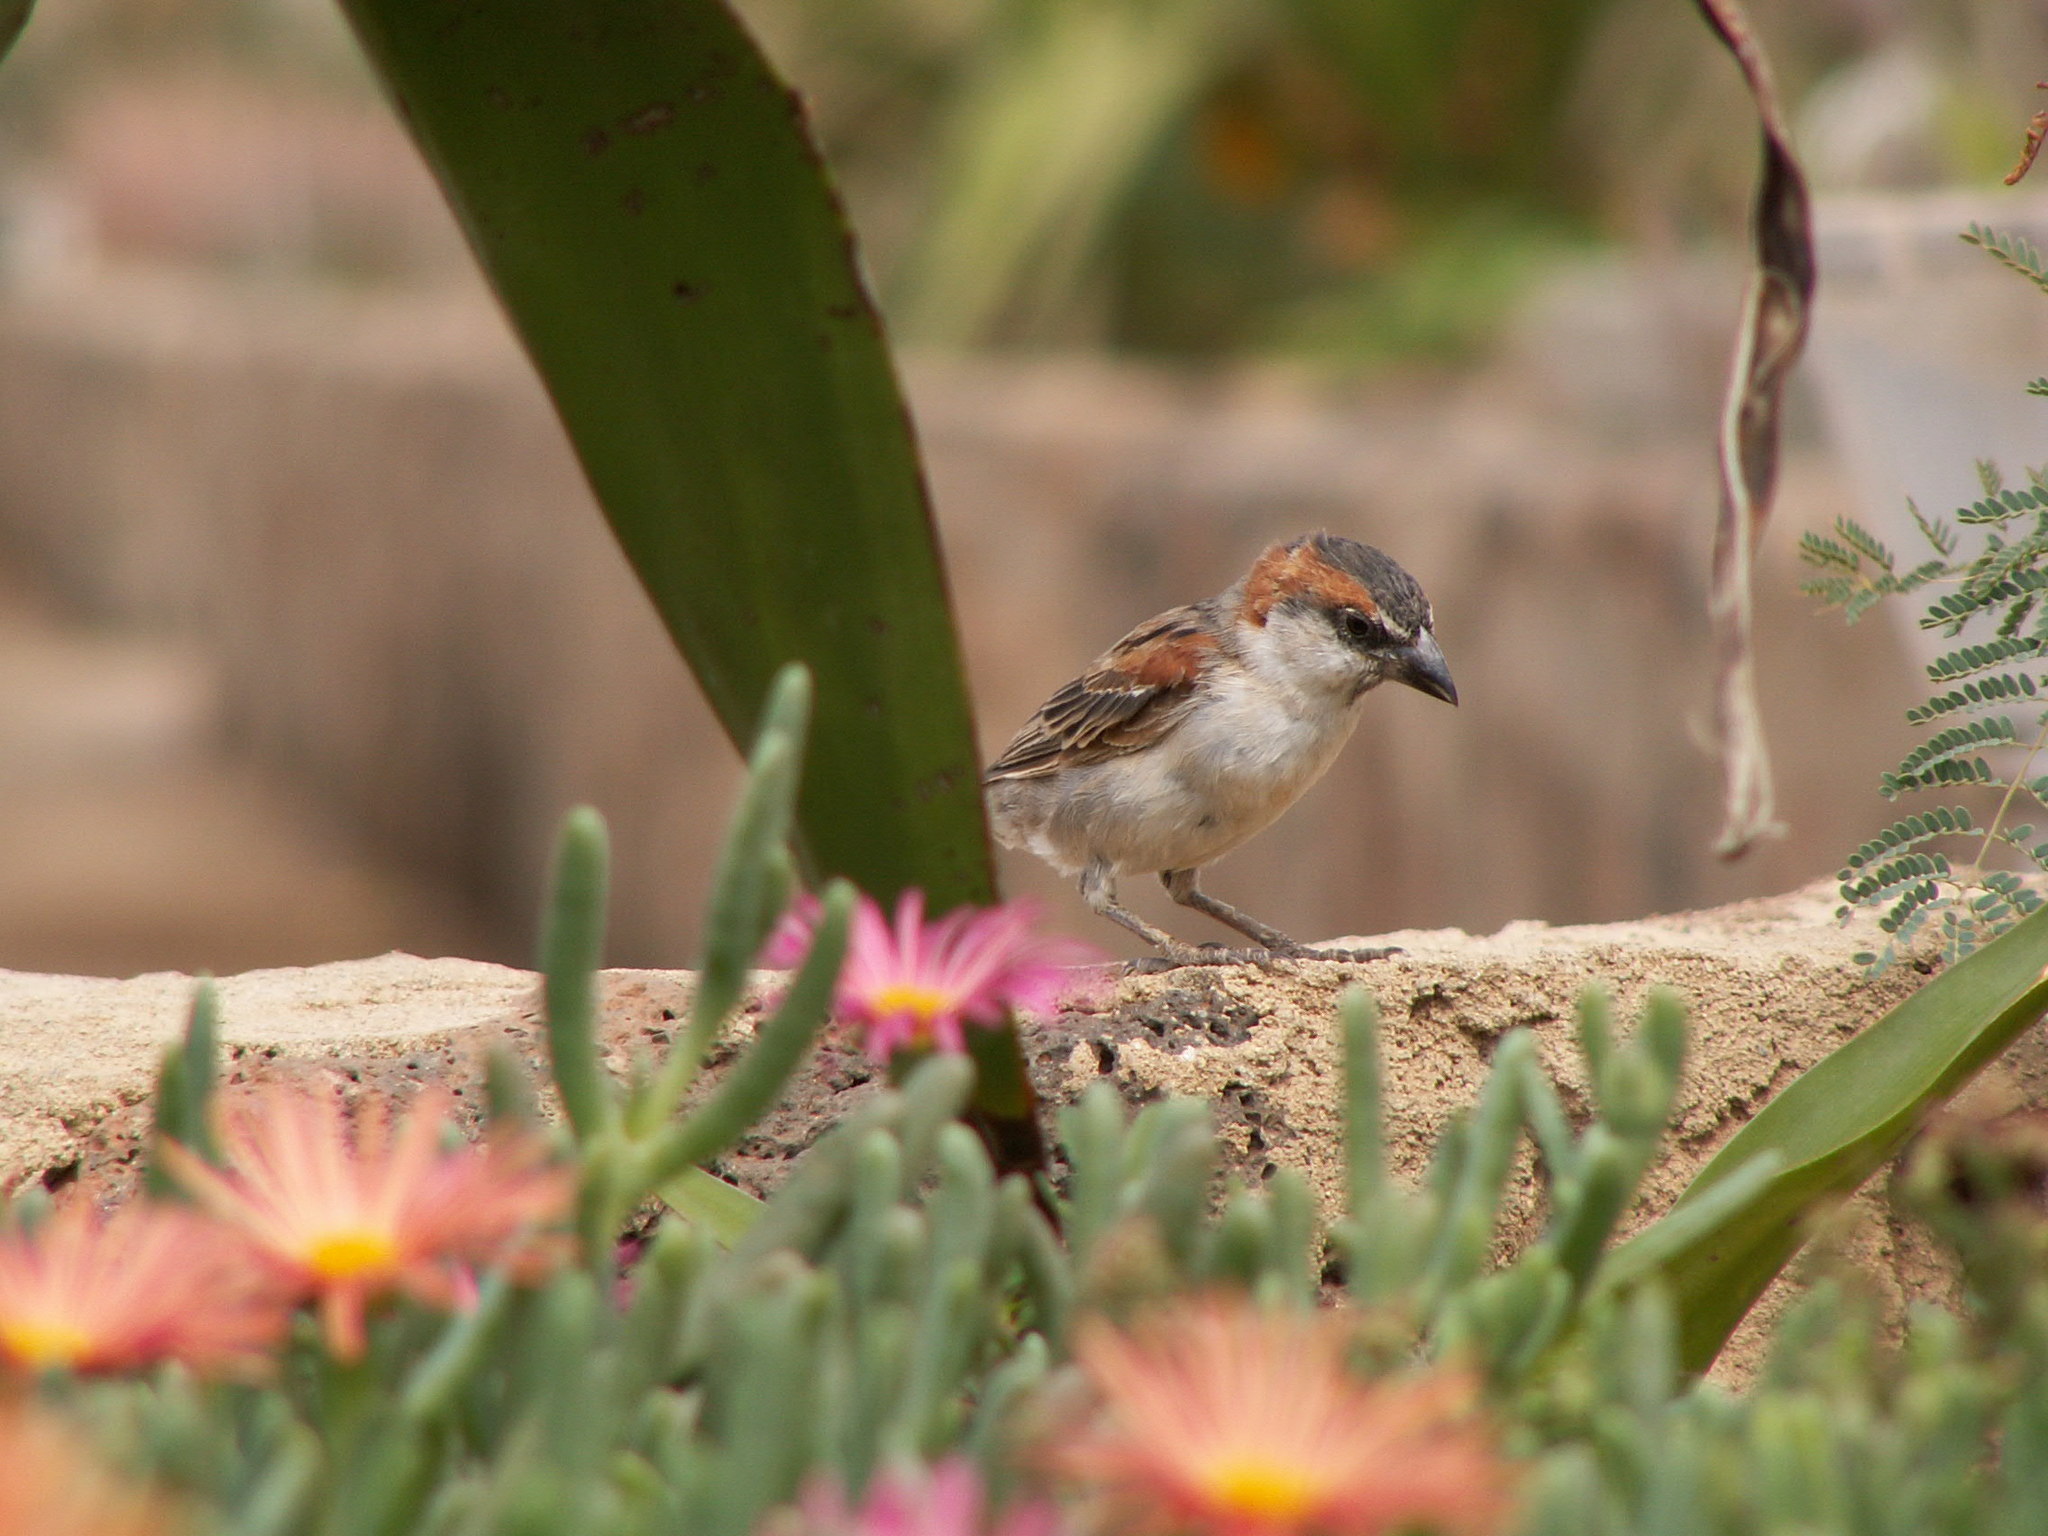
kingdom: Animalia
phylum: Chordata
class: Aves
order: Passeriformes
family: Passeridae
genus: Passer
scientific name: Passer iagoensis
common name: Iago sparrow
